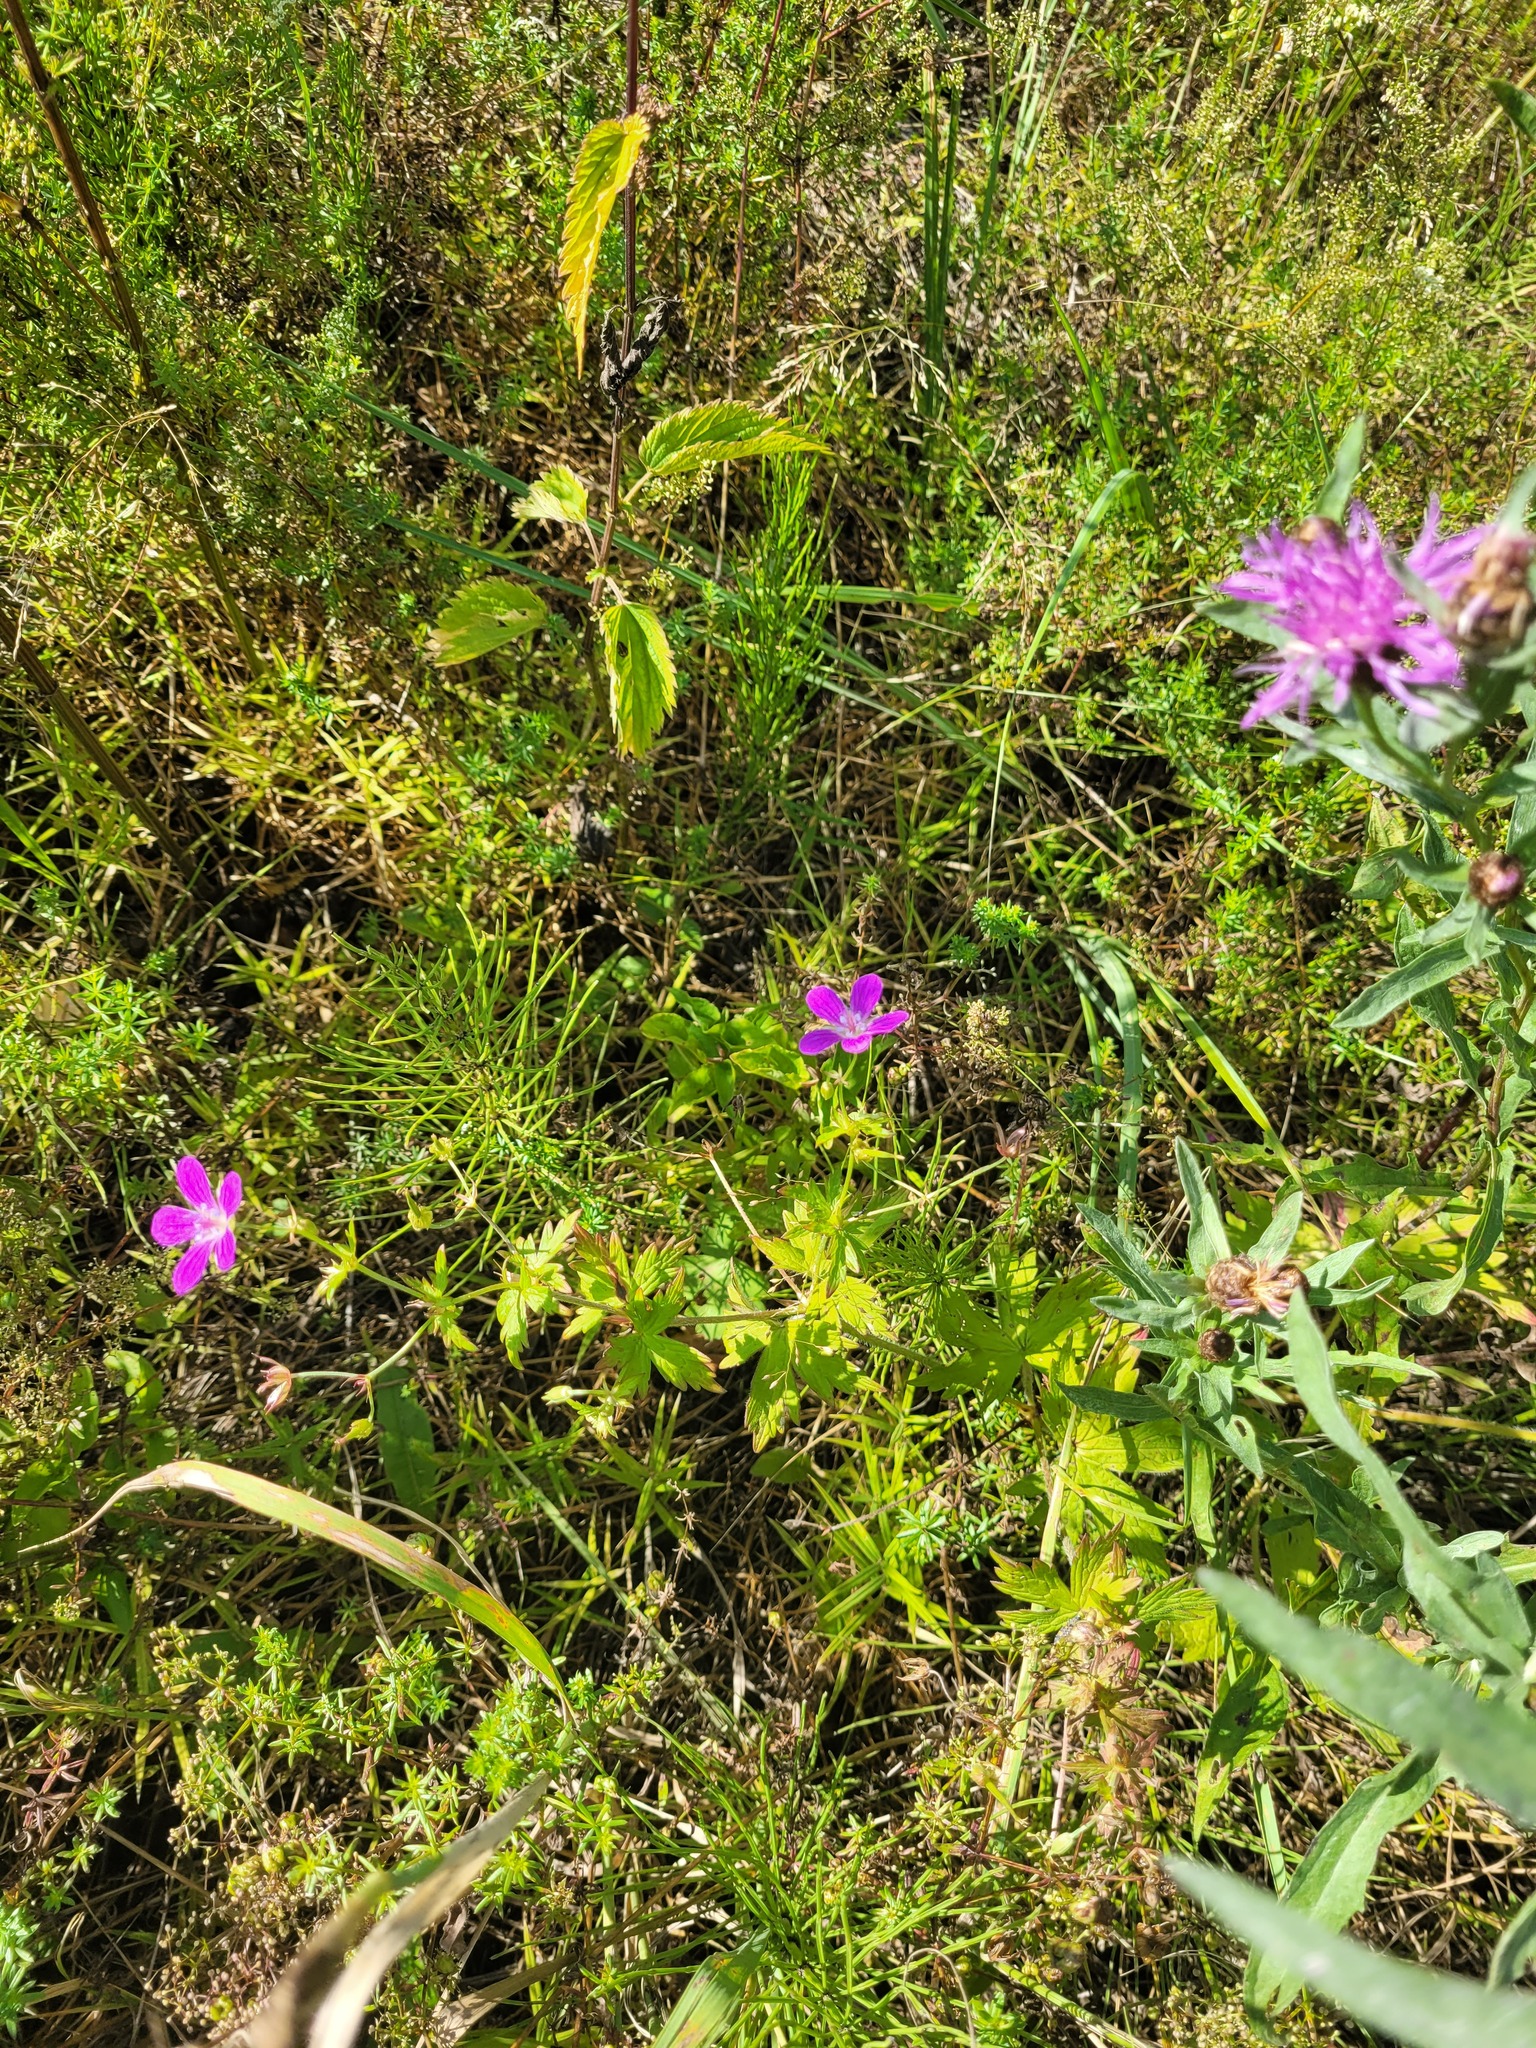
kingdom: Plantae
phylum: Tracheophyta
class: Magnoliopsida
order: Geraniales
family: Geraniaceae
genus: Geranium
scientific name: Geranium palustre
